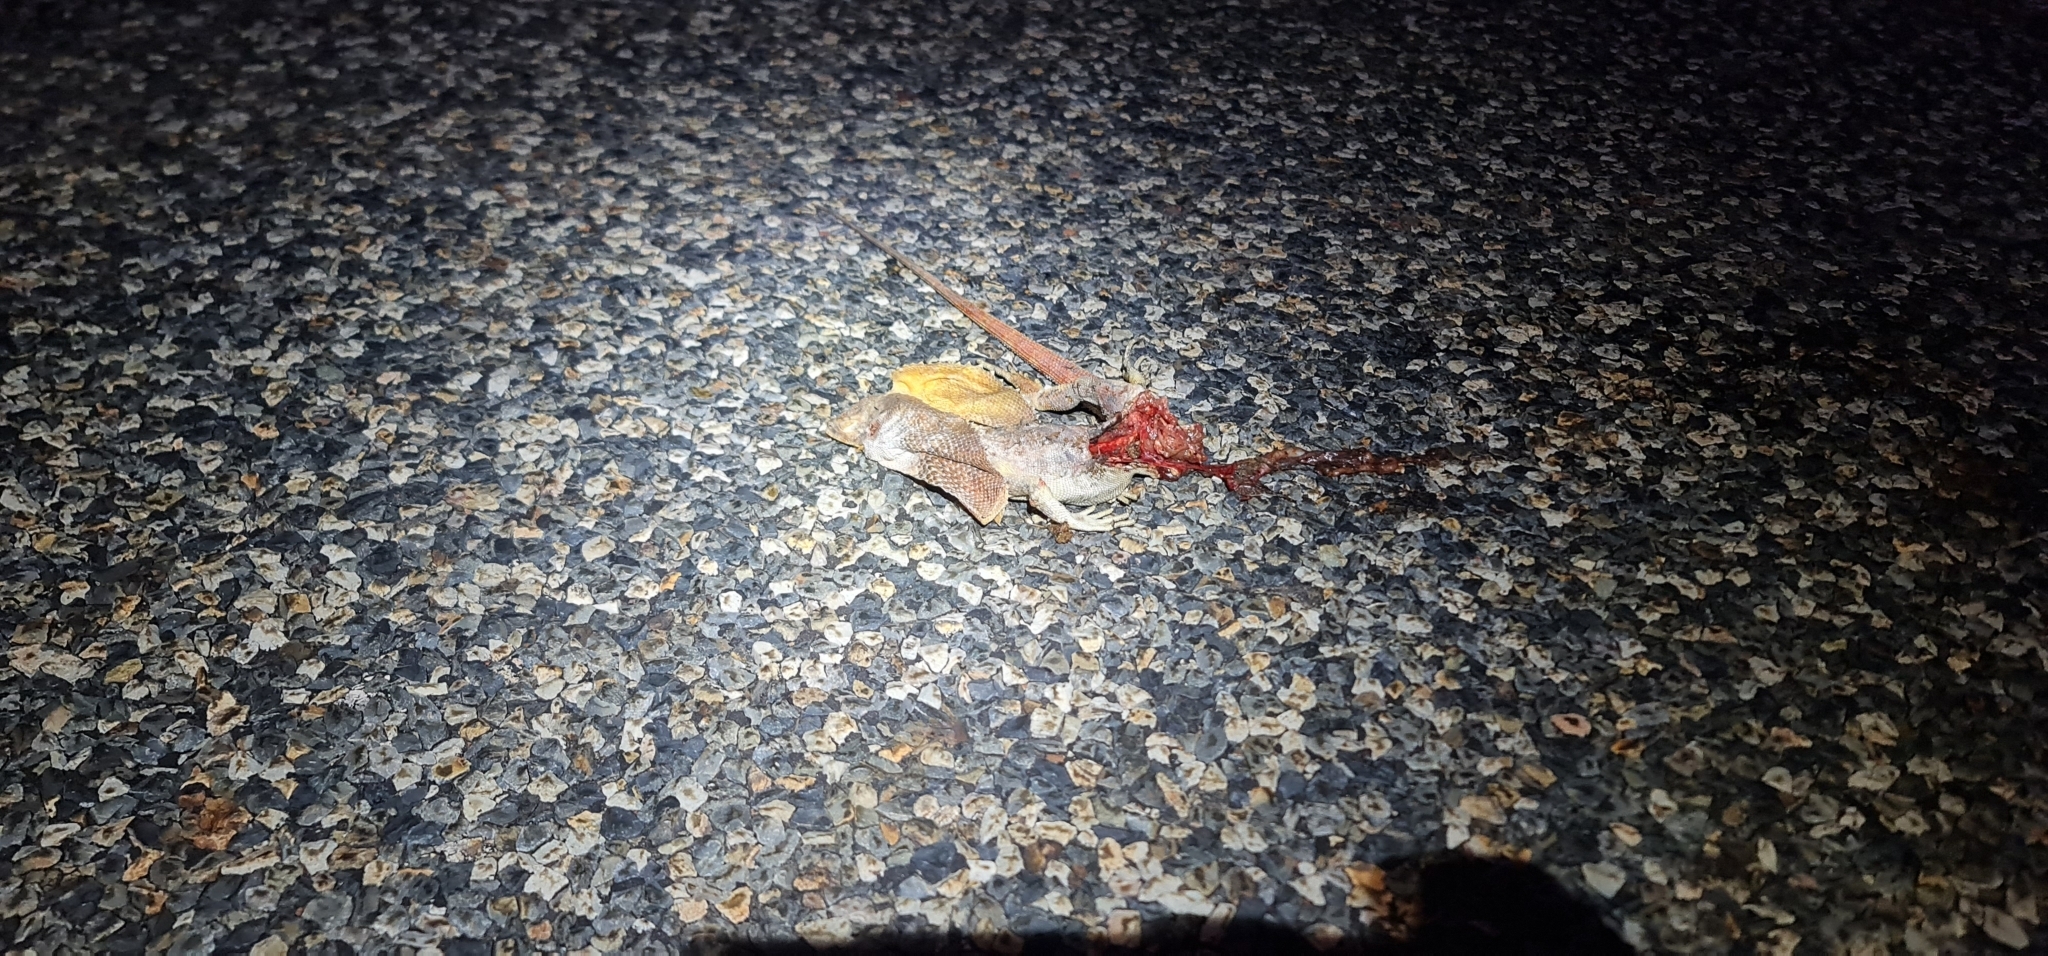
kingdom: Animalia
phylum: Chordata
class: Squamata
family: Agamidae
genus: Chlamydosaurus
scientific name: Chlamydosaurus kingii
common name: Frilled lizard
